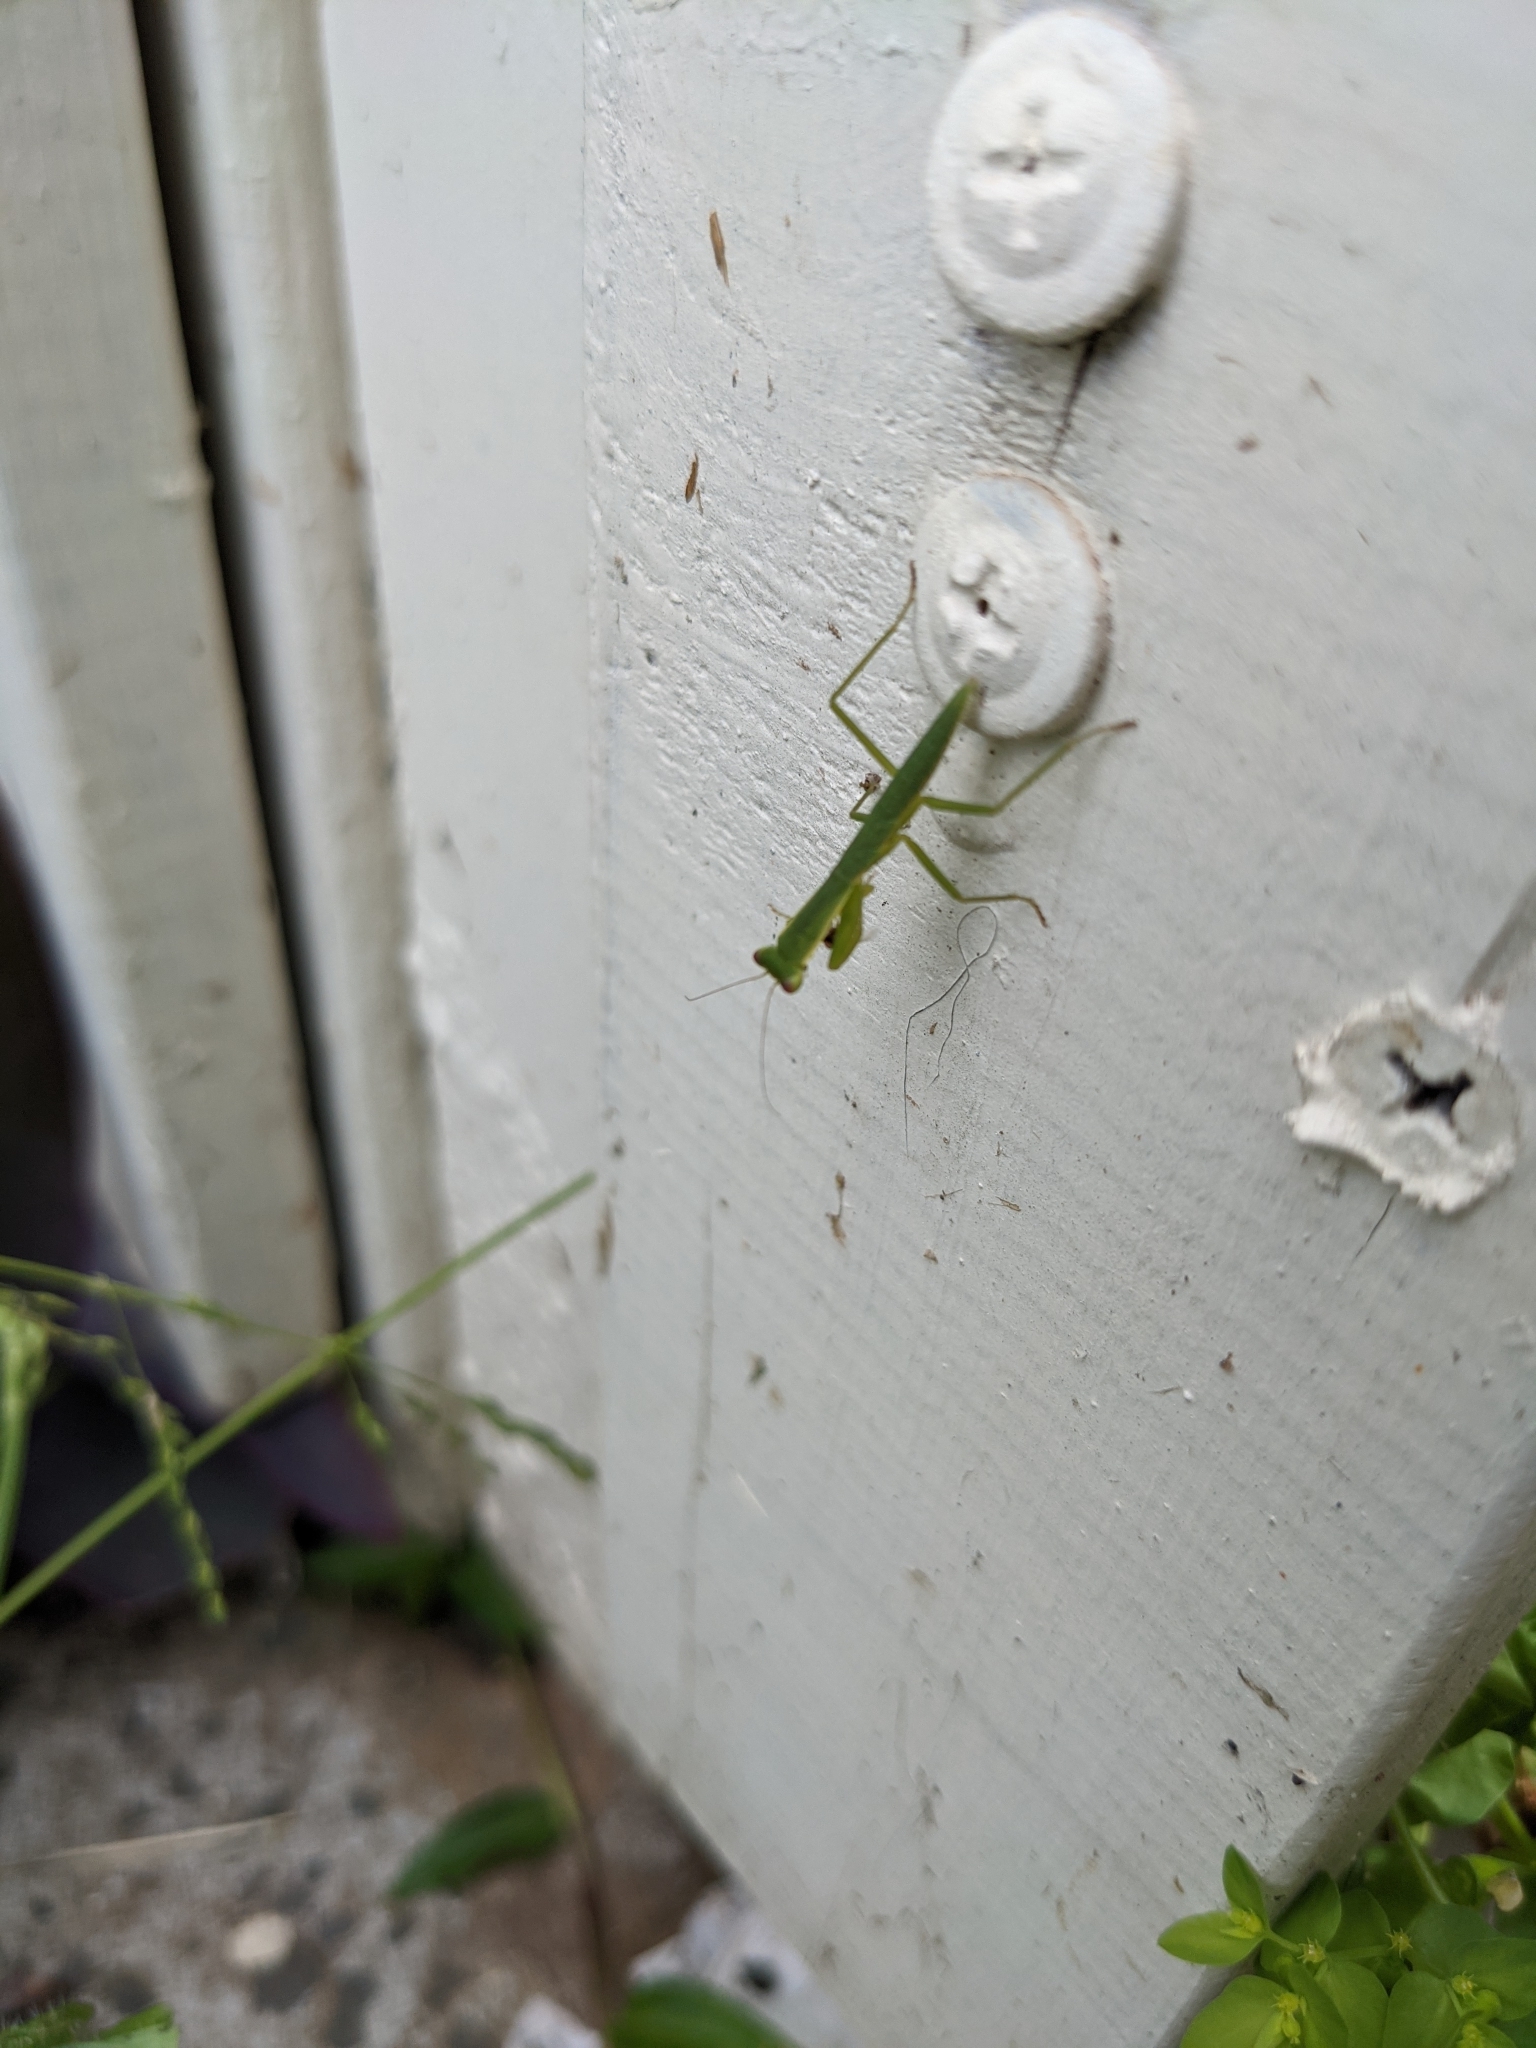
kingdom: Animalia
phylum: Arthropoda
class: Insecta
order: Mantodea
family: Mantidae
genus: Orthodera
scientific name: Orthodera ministralis
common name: Mantis
